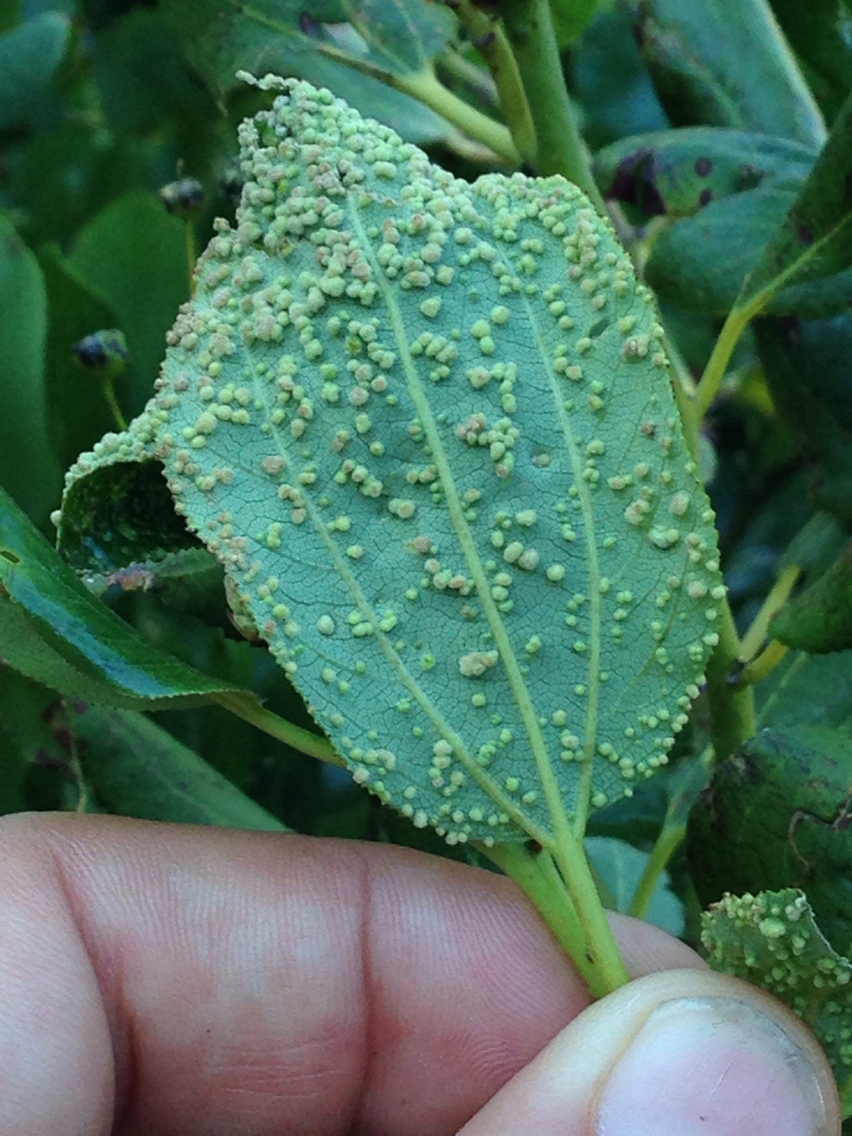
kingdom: Animalia
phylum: Arthropoda
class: Arachnida
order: Trombidiformes
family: Eriophyidae
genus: Aceria
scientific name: Aceria
